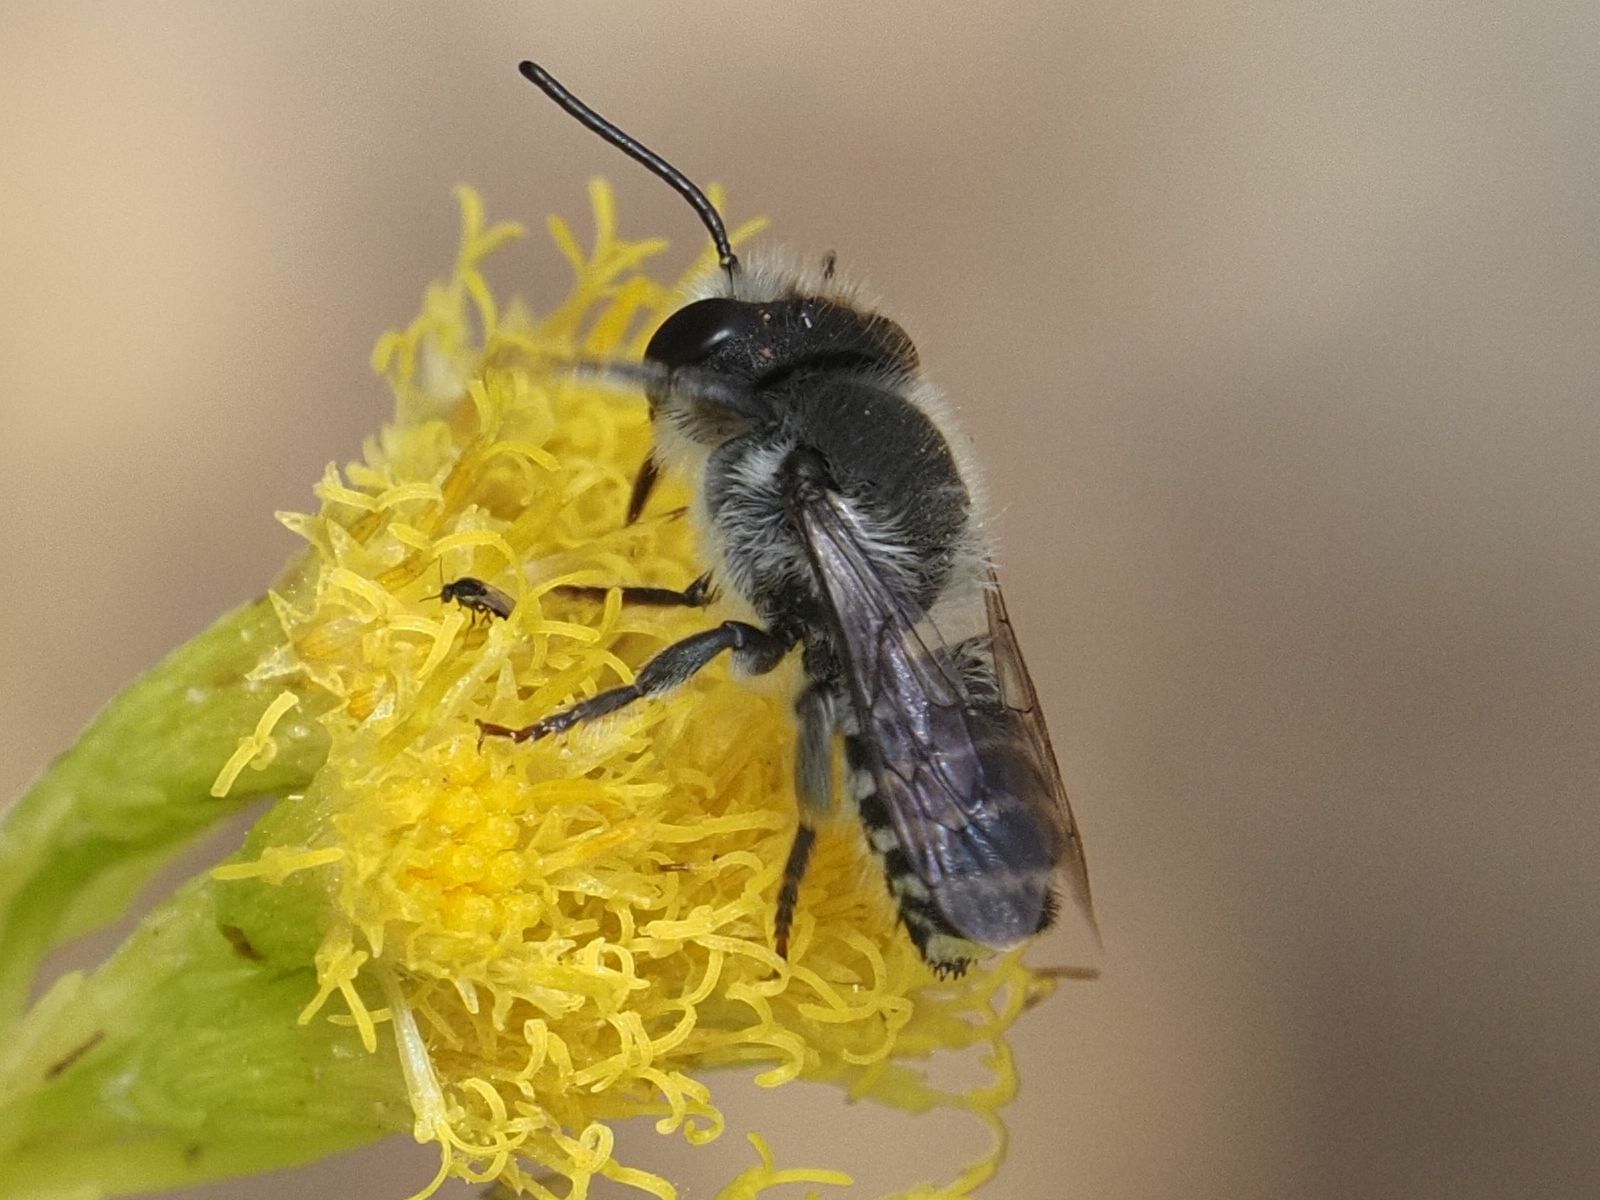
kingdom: Animalia
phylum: Arthropoda
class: Insecta
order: Hymenoptera
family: Megachilidae
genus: Megachile
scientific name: Megachile canariensis
